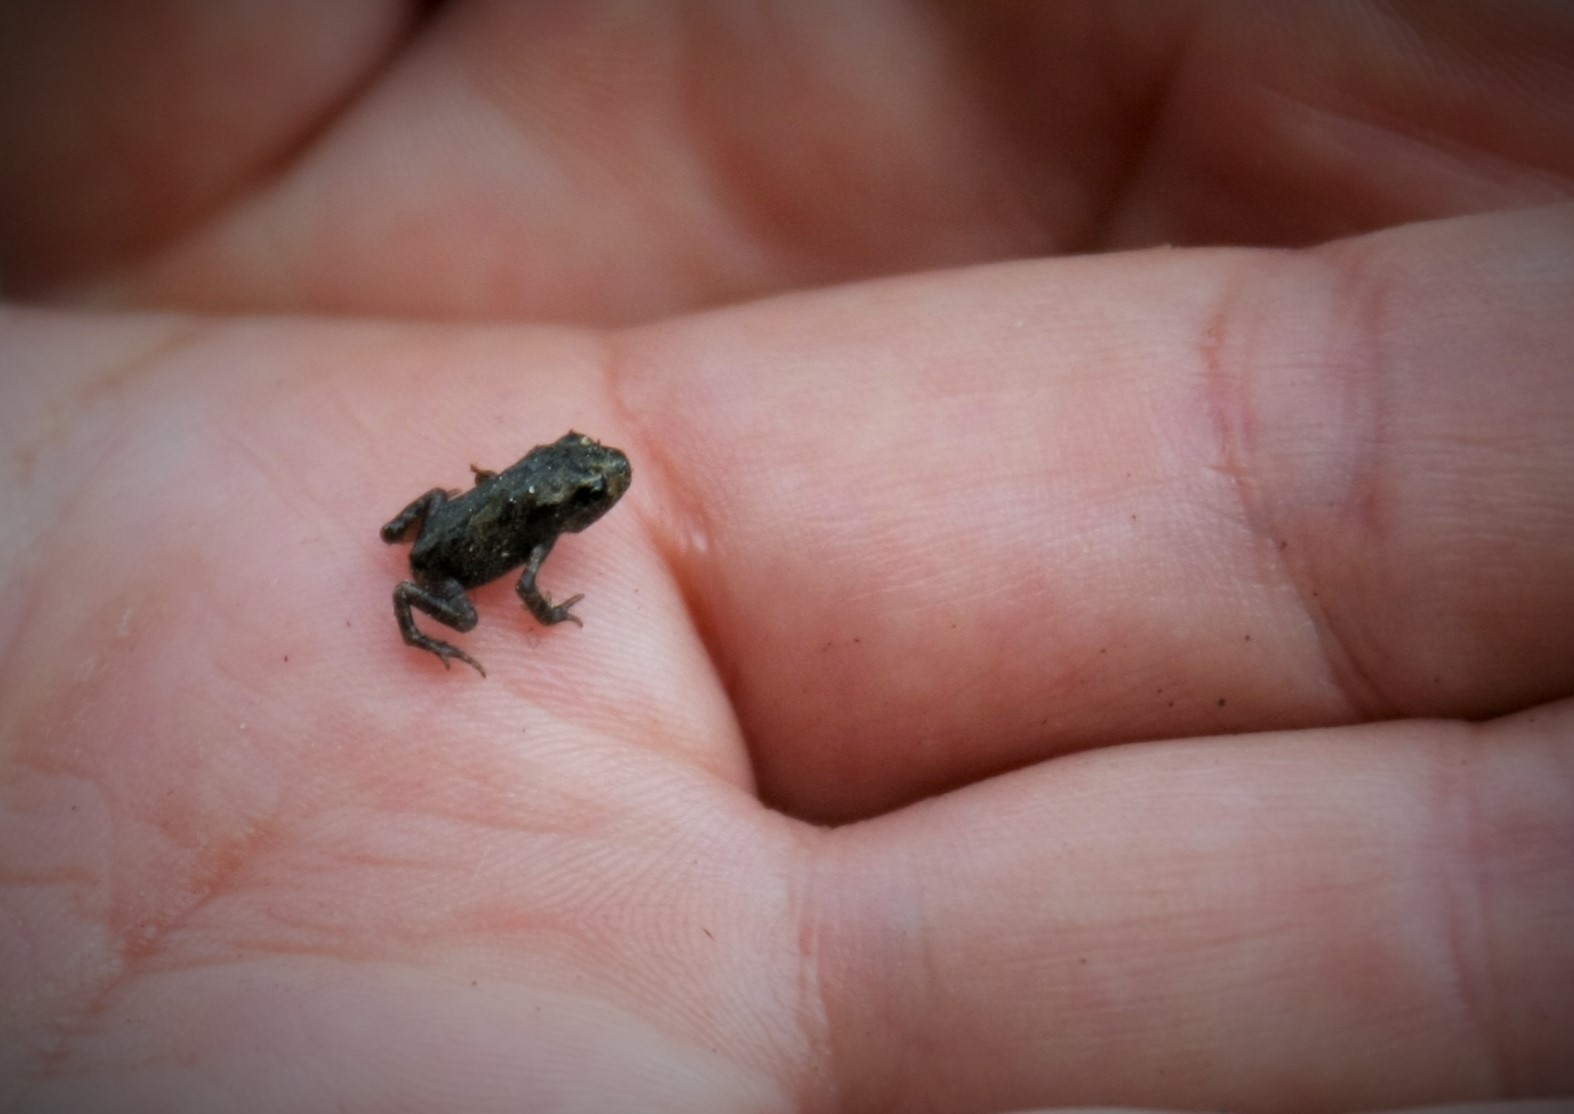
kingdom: Animalia
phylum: Chordata
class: Amphibia
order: Anura
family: Bufonidae
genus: Bufo
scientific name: Bufo bufo
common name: Common toad
